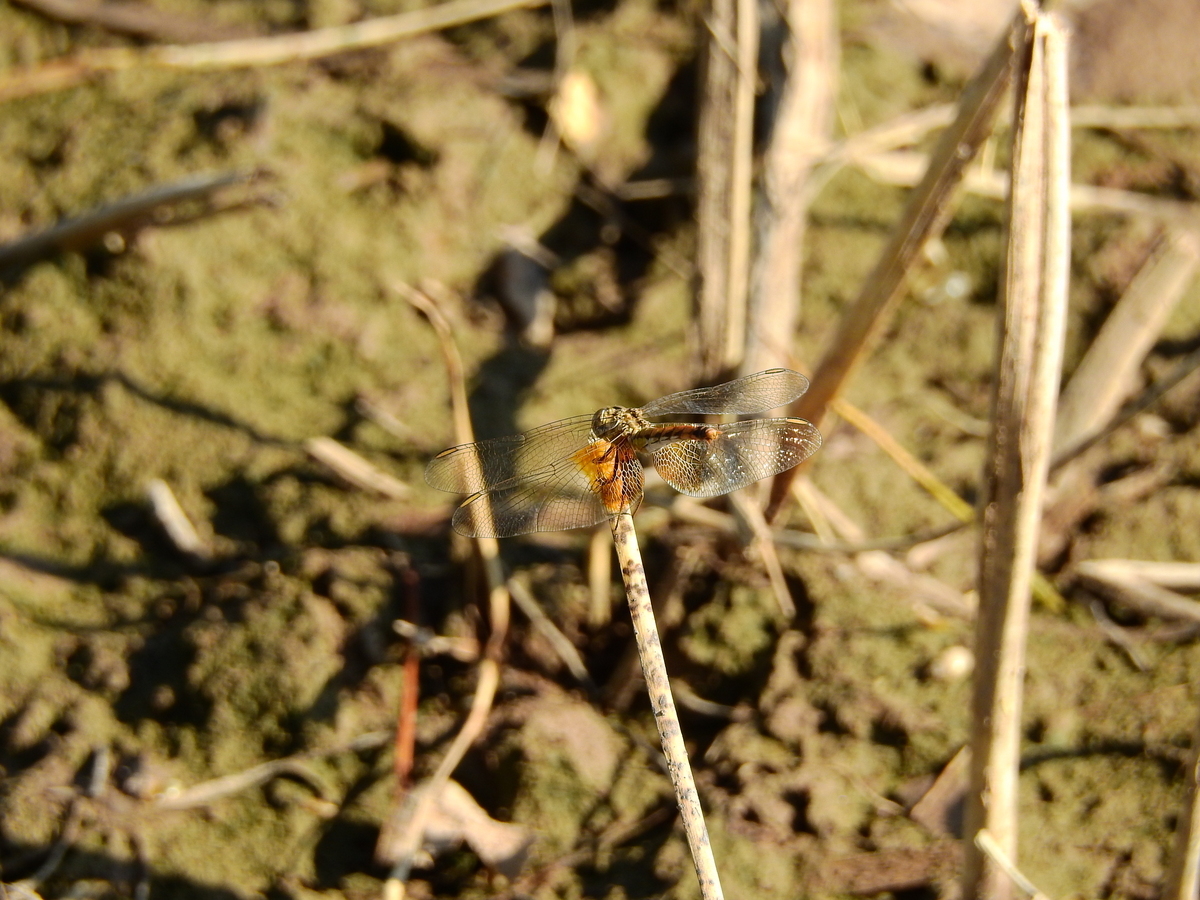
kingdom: Animalia
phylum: Arthropoda
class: Insecta
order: Odonata
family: Libellulidae
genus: Erythrodiplax
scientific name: Erythrodiplax corallina
